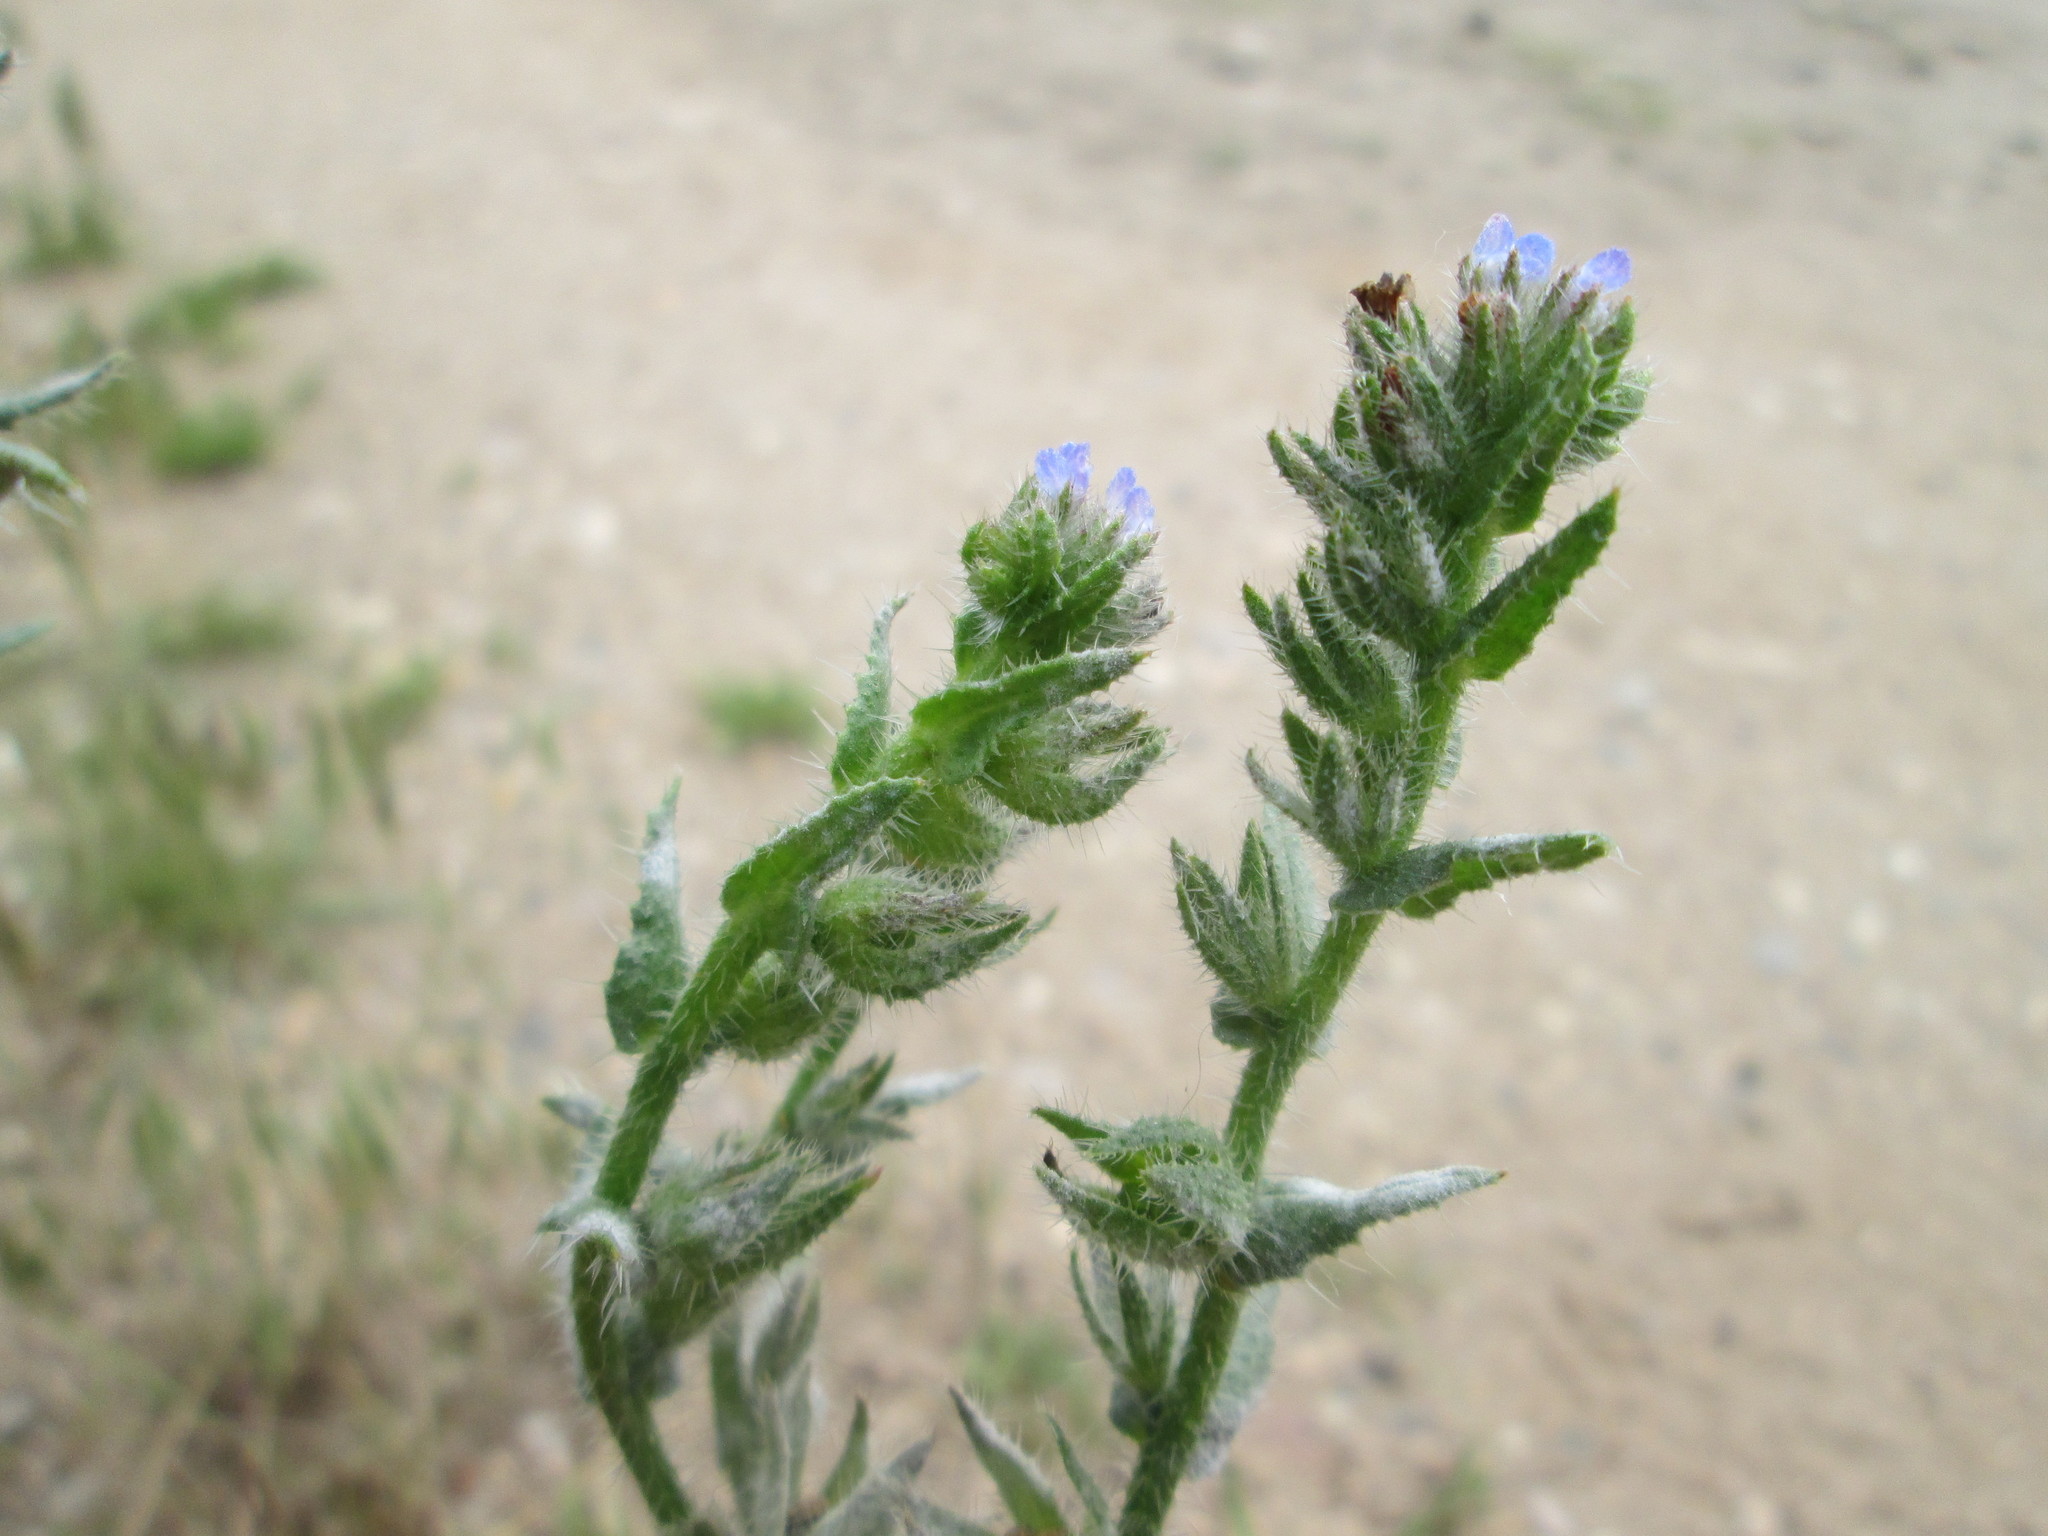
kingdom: Plantae
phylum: Tracheophyta
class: Magnoliopsida
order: Boraginales
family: Boraginaceae
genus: Lycopsis
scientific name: Lycopsis arvensis
